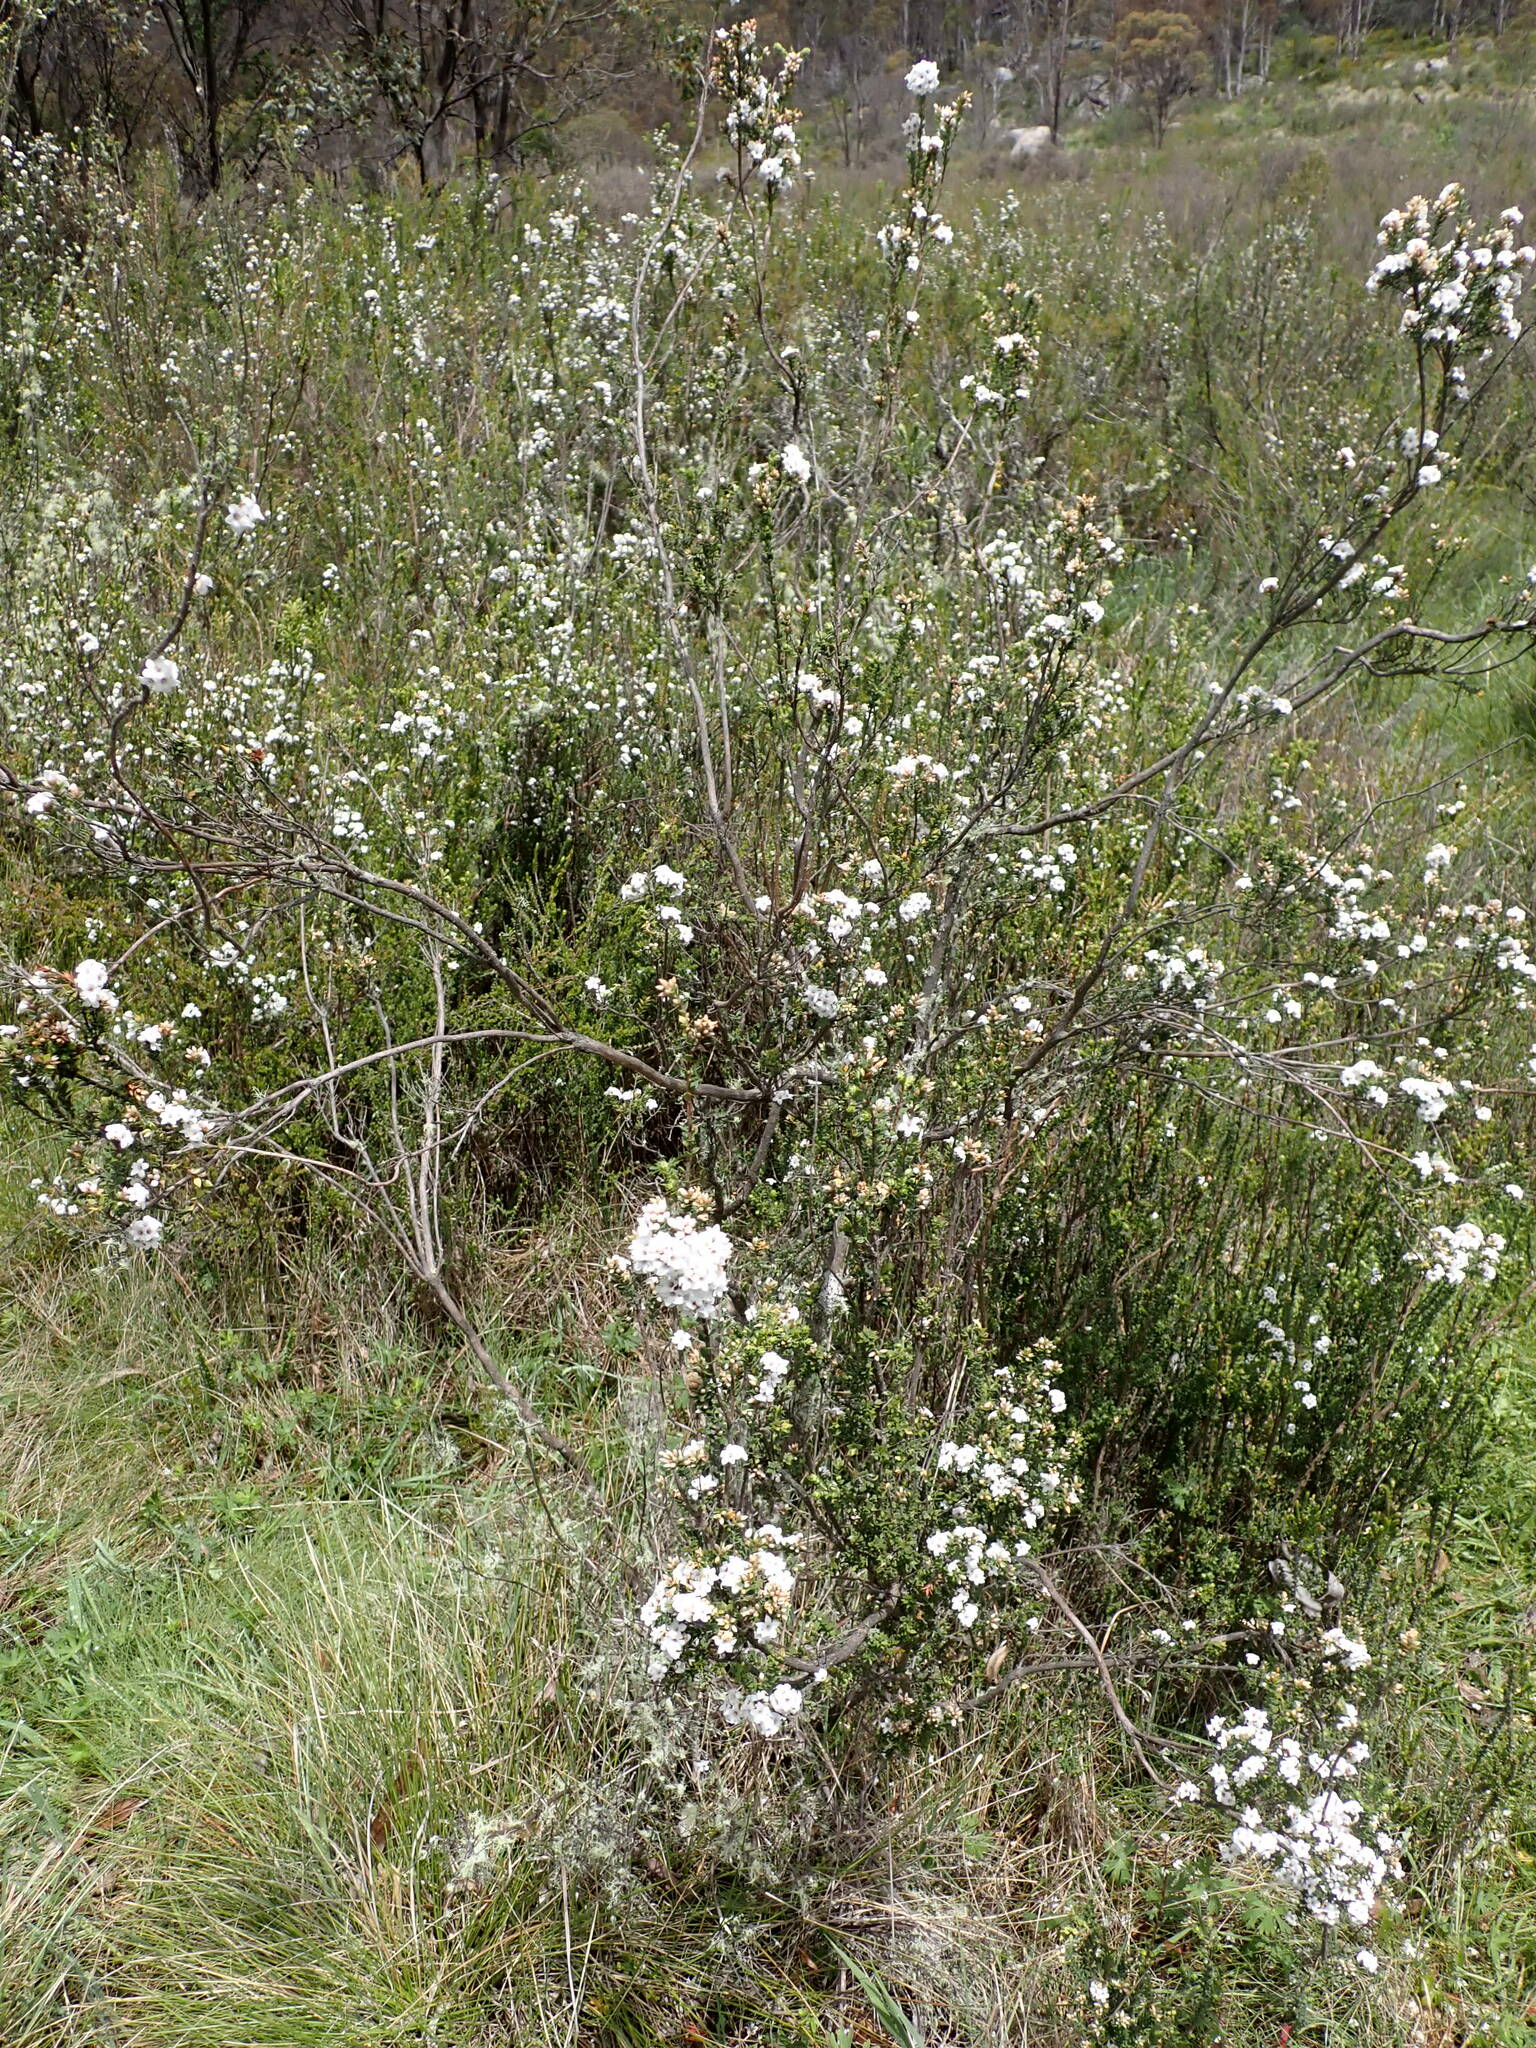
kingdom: Plantae
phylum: Tracheophyta
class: Magnoliopsida
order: Ericales
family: Ericaceae
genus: Epacris
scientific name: Epacris breviflora
